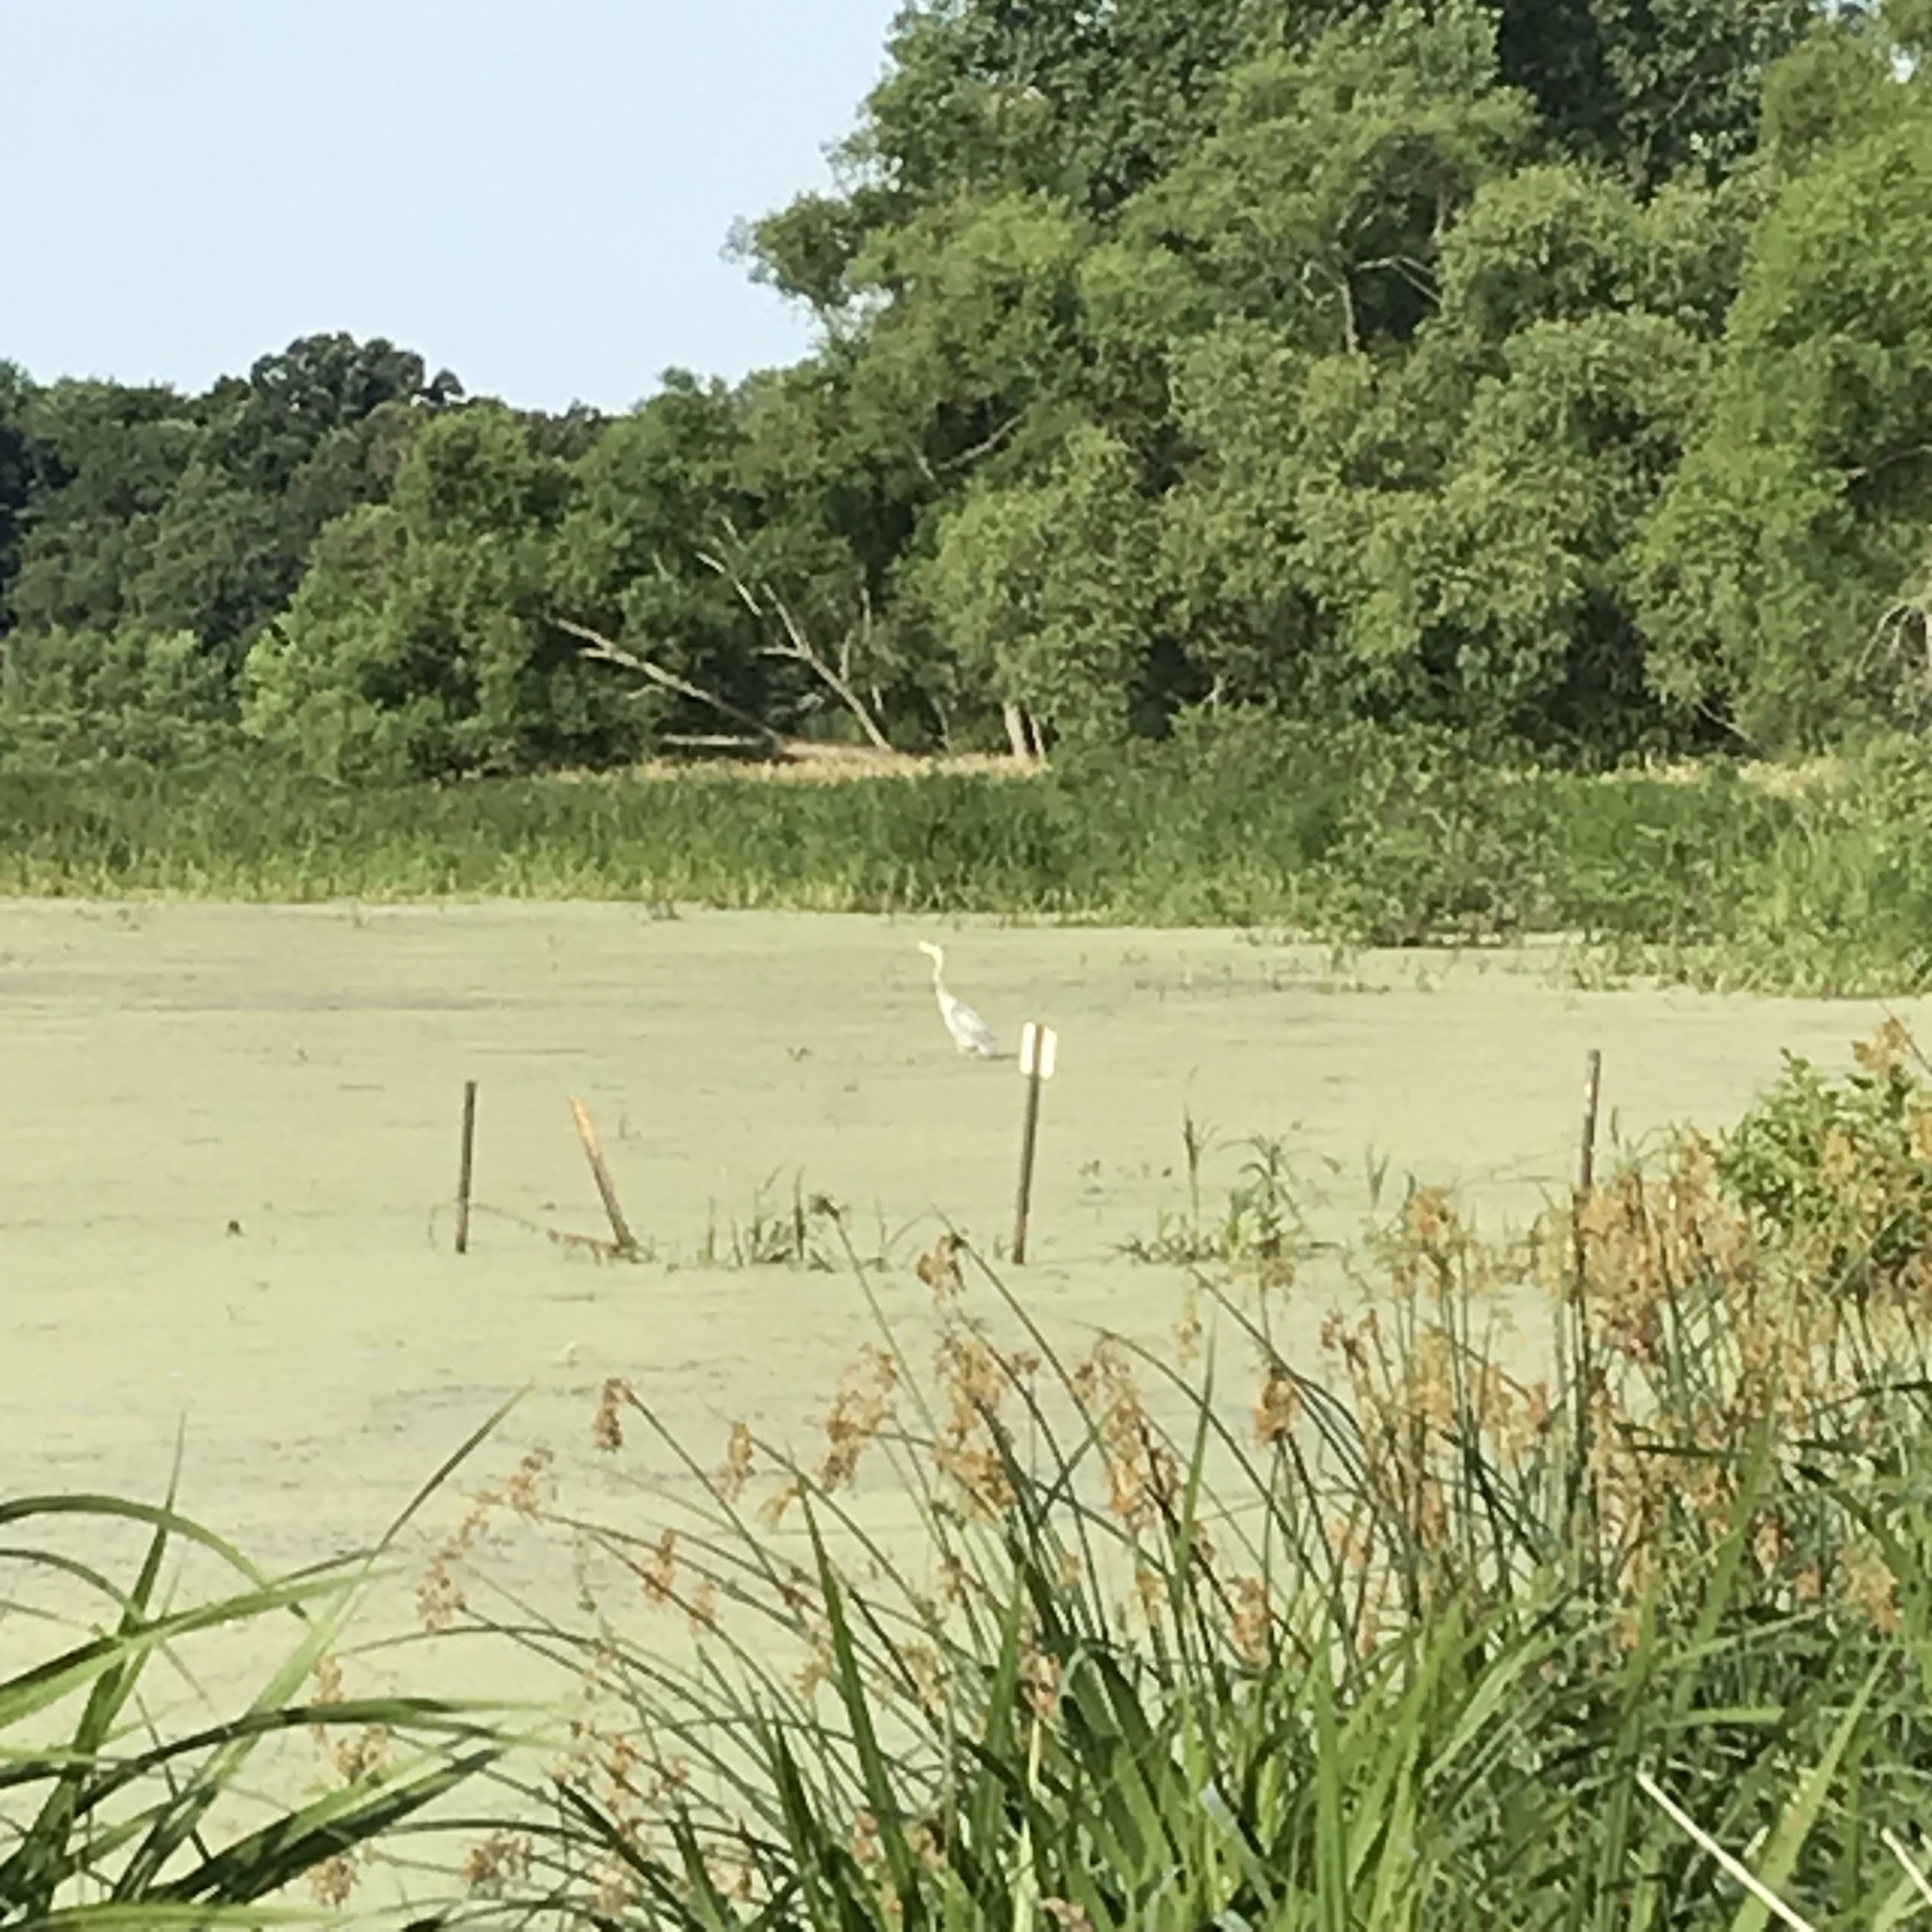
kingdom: Animalia
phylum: Chordata
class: Aves
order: Pelecaniformes
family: Ardeidae
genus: Ardea
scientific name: Ardea herodias
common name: Great blue heron
